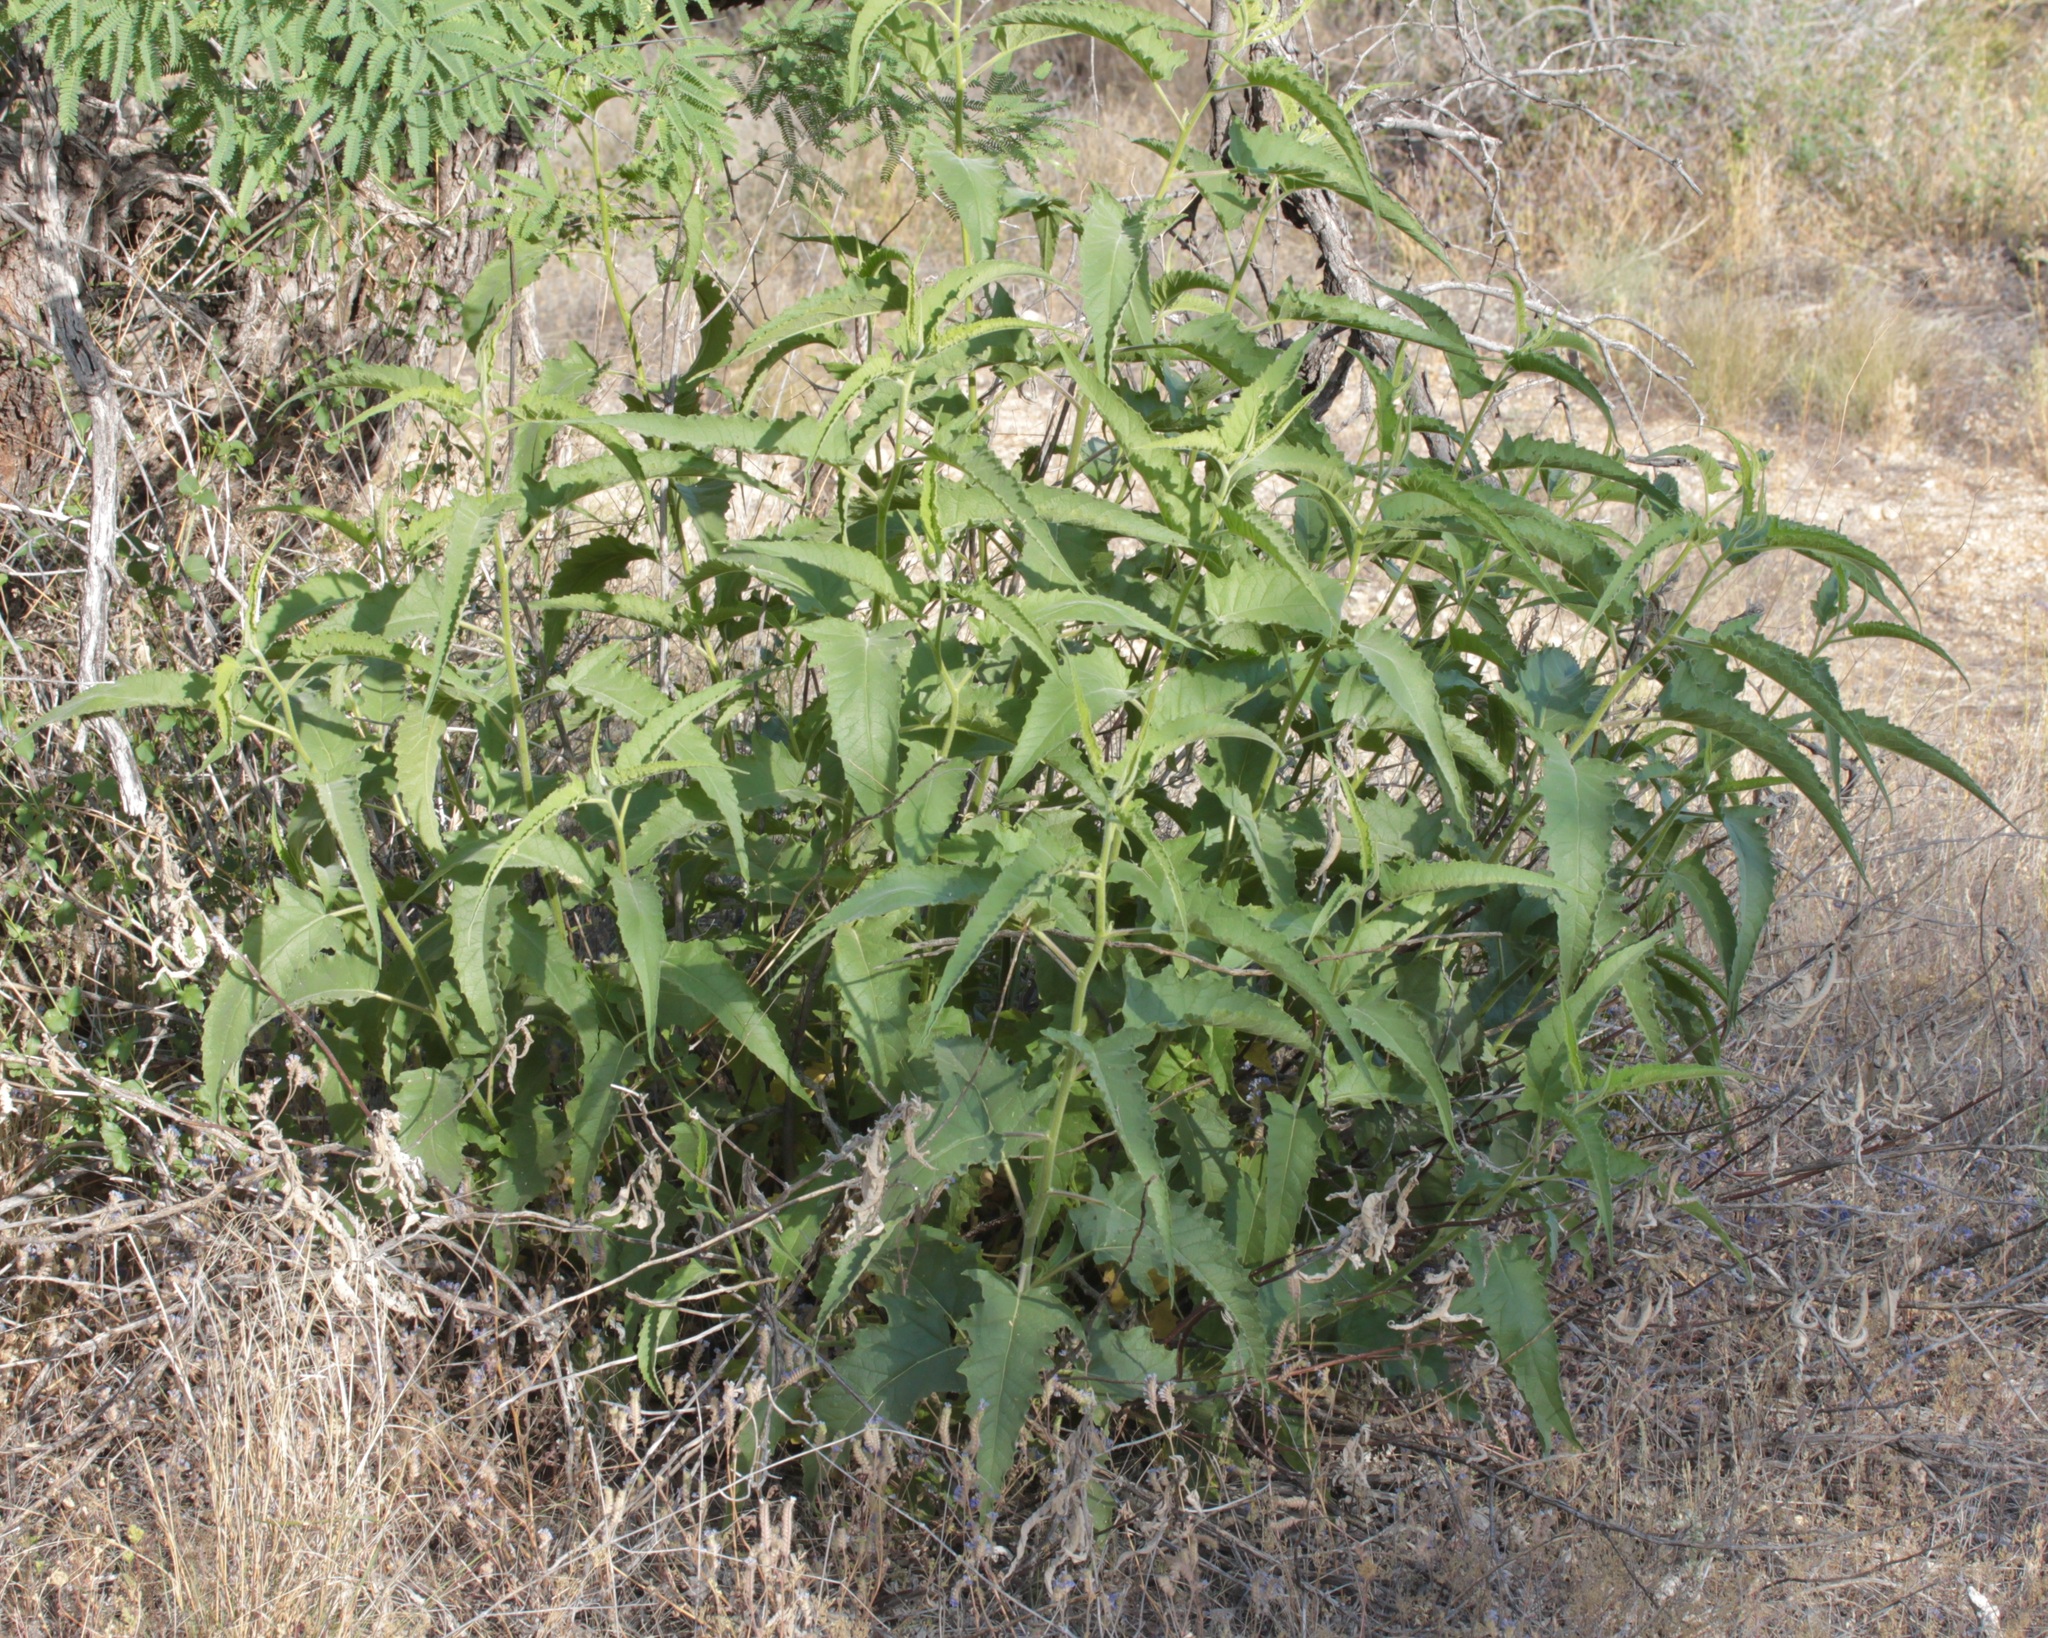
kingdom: Plantae
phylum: Tracheophyta
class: Magnoliopsida
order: Asterales
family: Asteraceae
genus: Ambrosia
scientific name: Ambrosia ambrosioides
